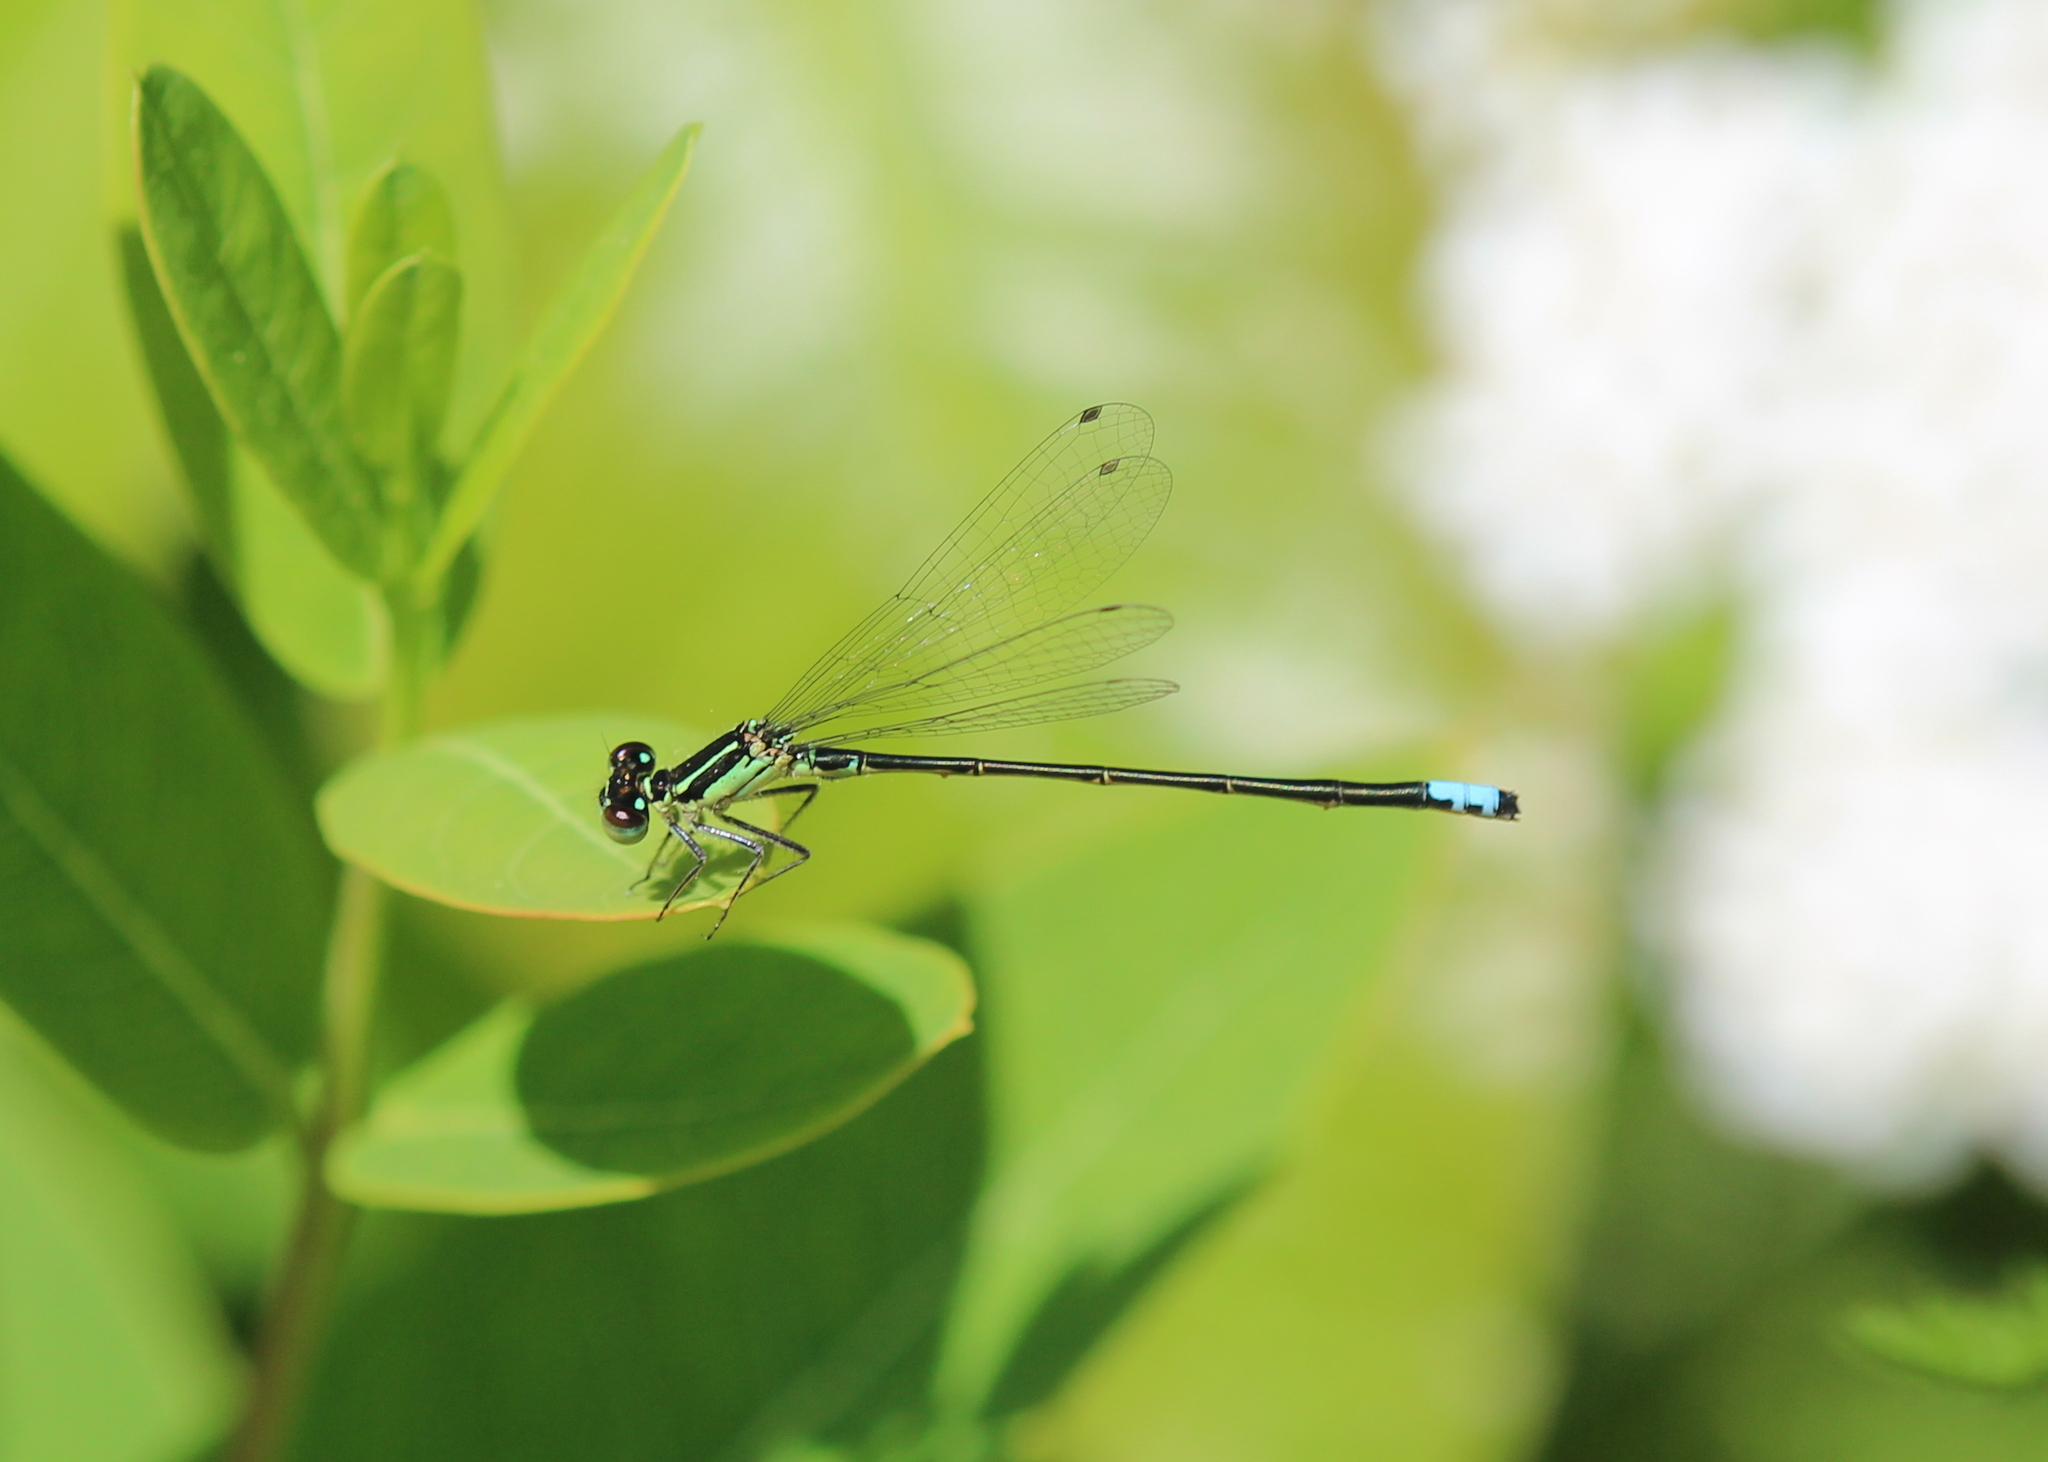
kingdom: Animalia
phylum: Arthropoda
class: Insecta
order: Odonata
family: Coenagrionidae
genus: Ischnura
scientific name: Ischnura verticalis
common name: Eastern forktail
